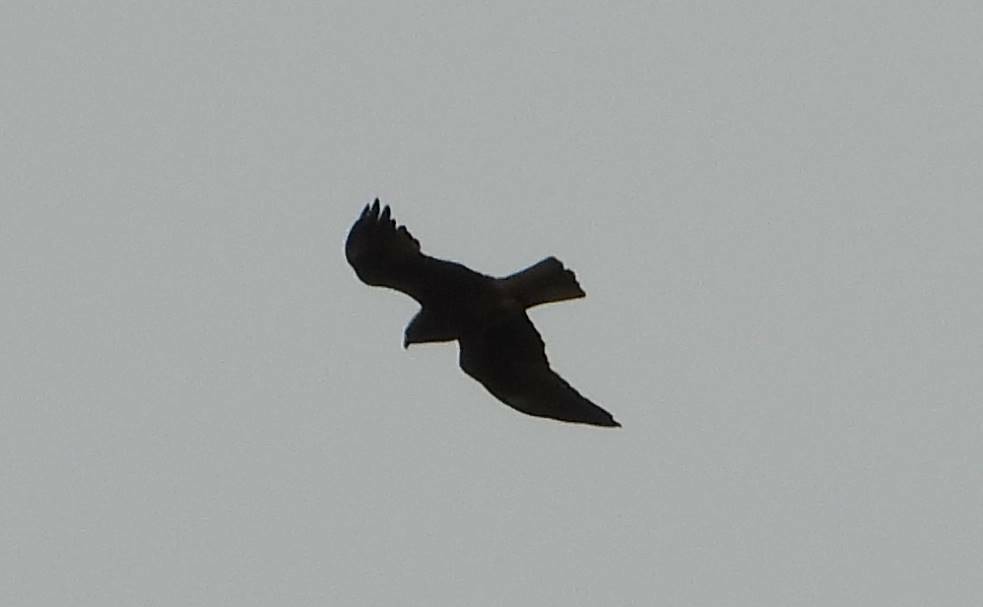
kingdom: Animalia
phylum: Chordata
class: Aves
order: Accipitriformes
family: Accipitridae
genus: Hieraaetus
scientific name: Hieraaetus pennatus
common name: Booted eagle
